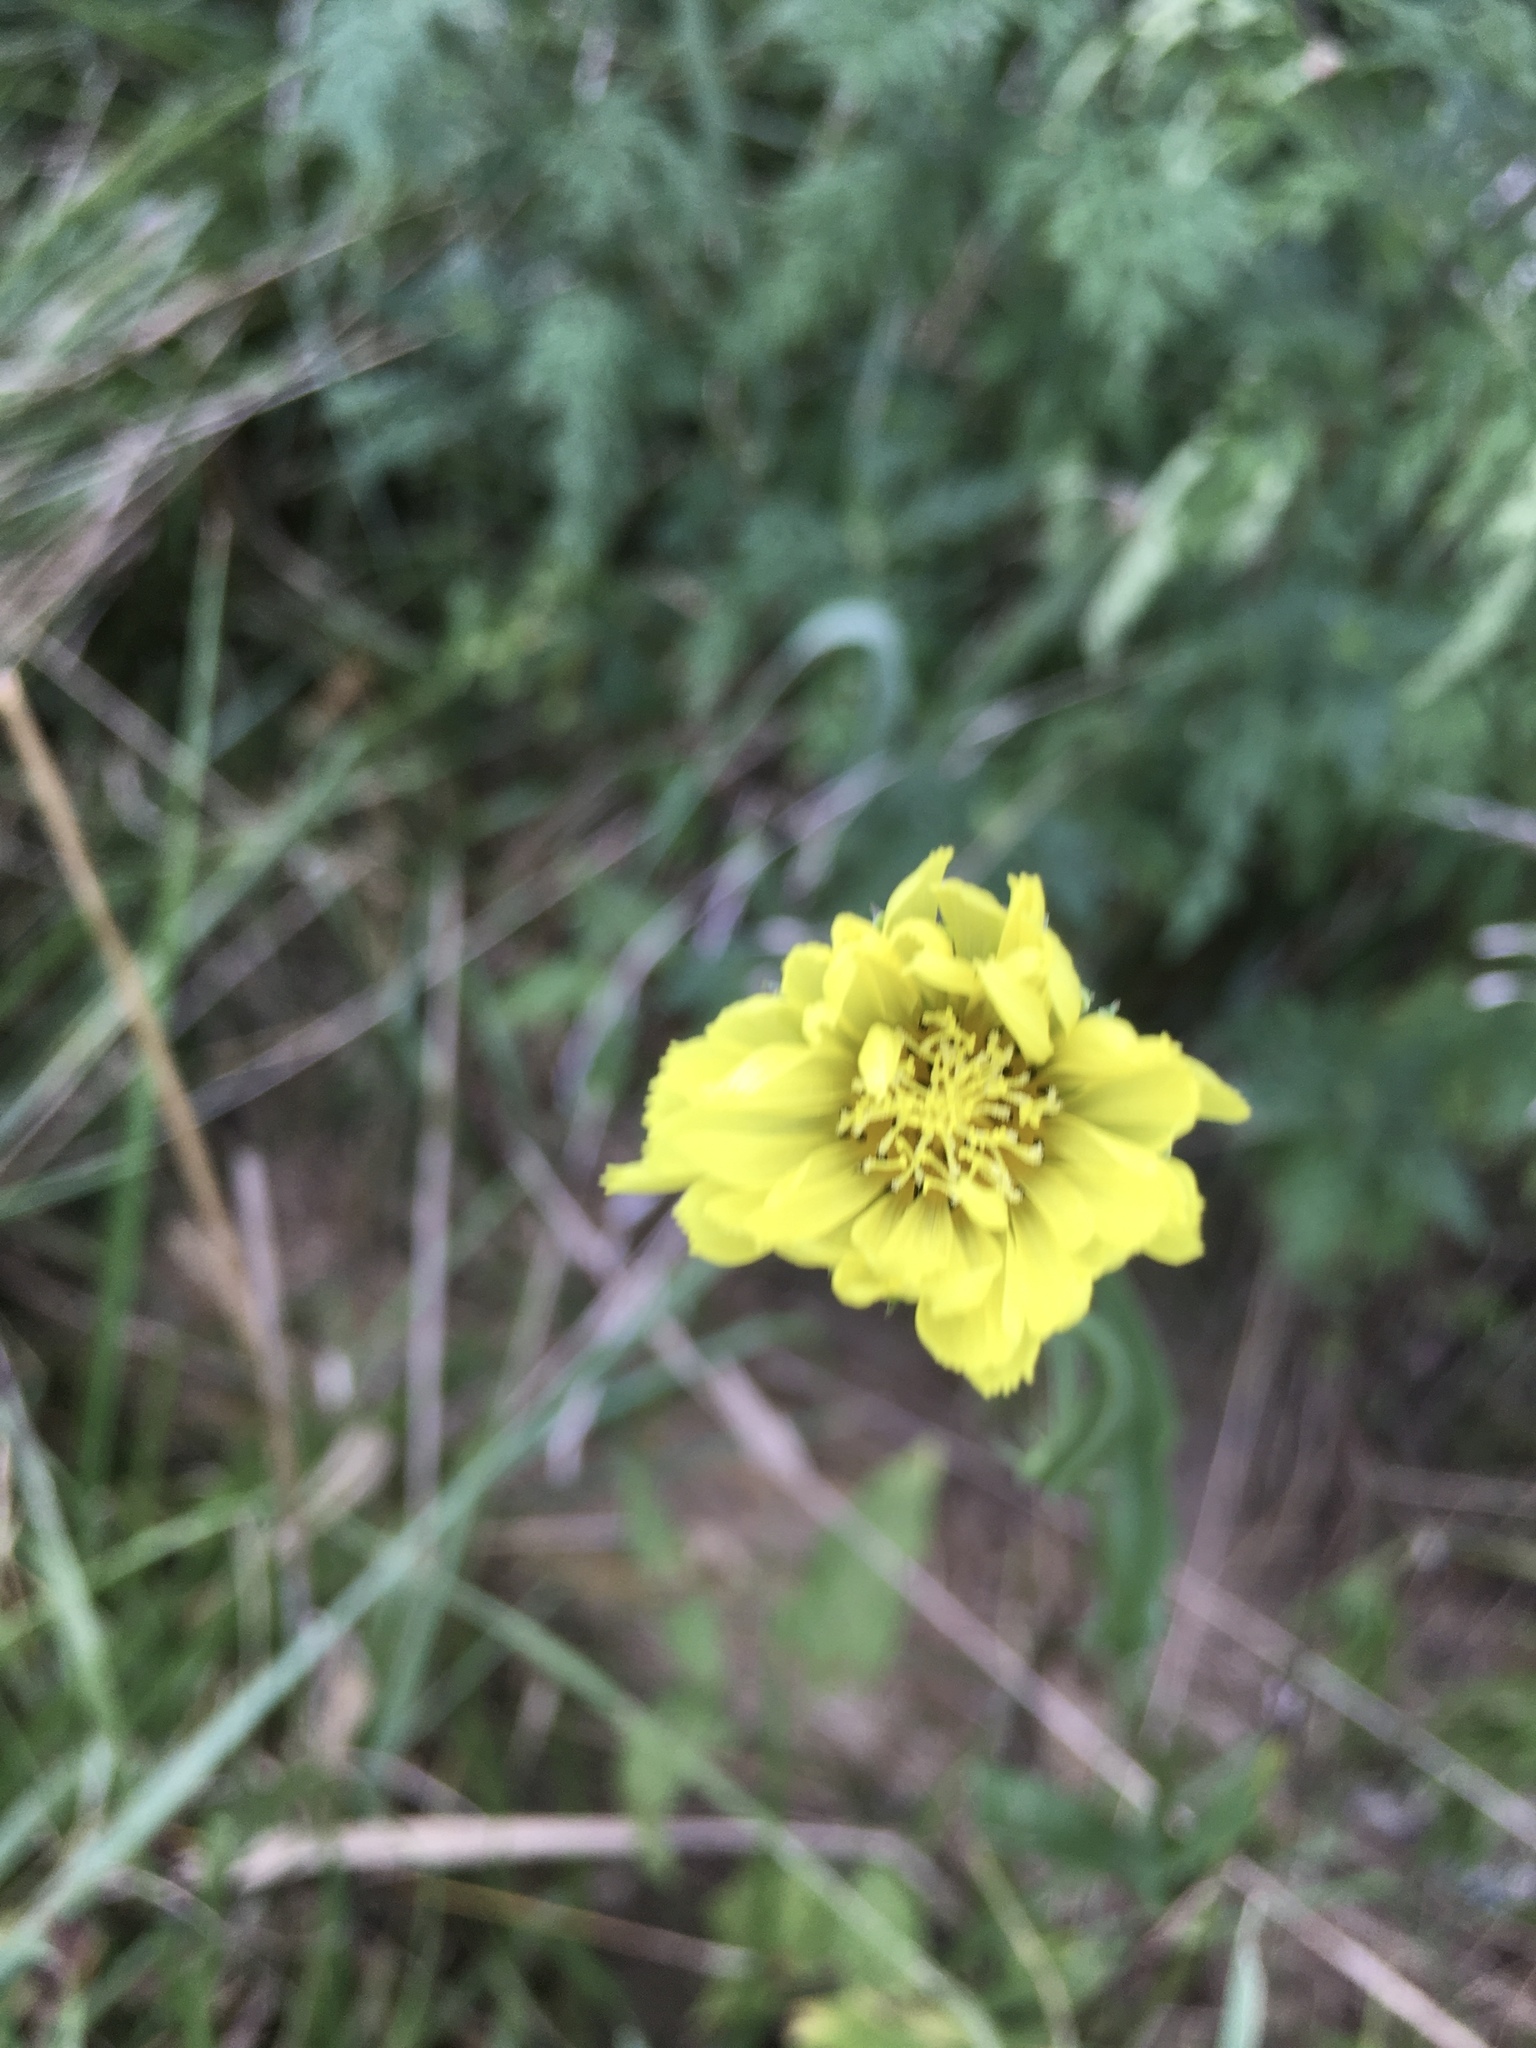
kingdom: Plantae
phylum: Tracheophyta
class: Magnoliopsida
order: Asterales
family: Asteraceae
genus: Pyrrhopappus
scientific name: Pyrrhopappus carolinianus
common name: Carolina desert-chicory
